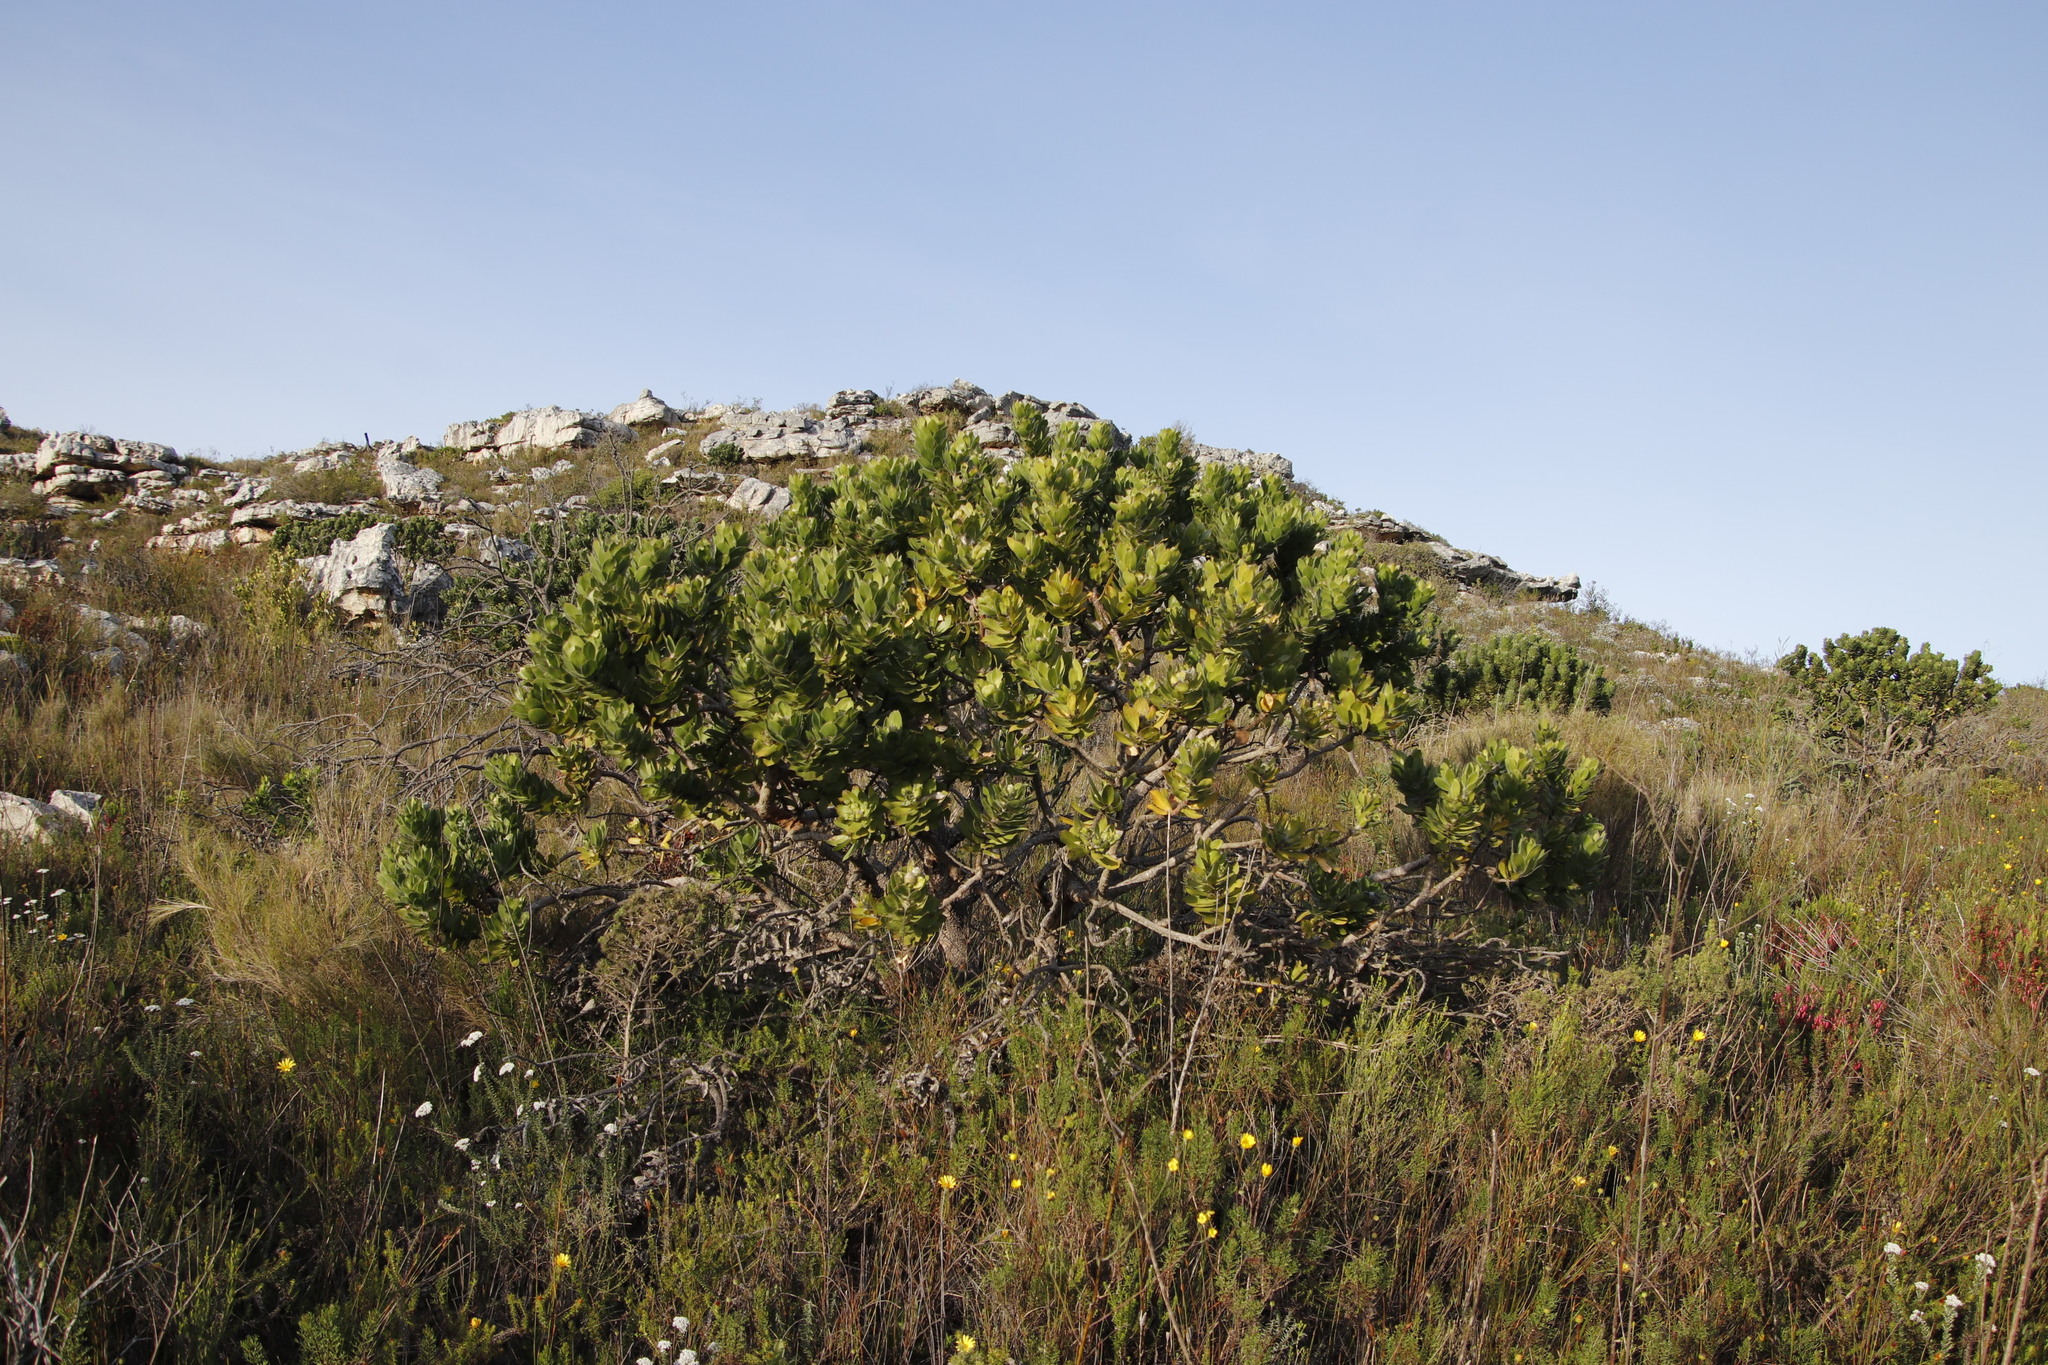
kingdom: Plantae
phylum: Tracheophyta
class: Magnoliopsida
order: Proteales
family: Proteaceae
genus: Leucospermum
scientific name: Leucospermum conocarpodendron
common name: Tree pincushion
